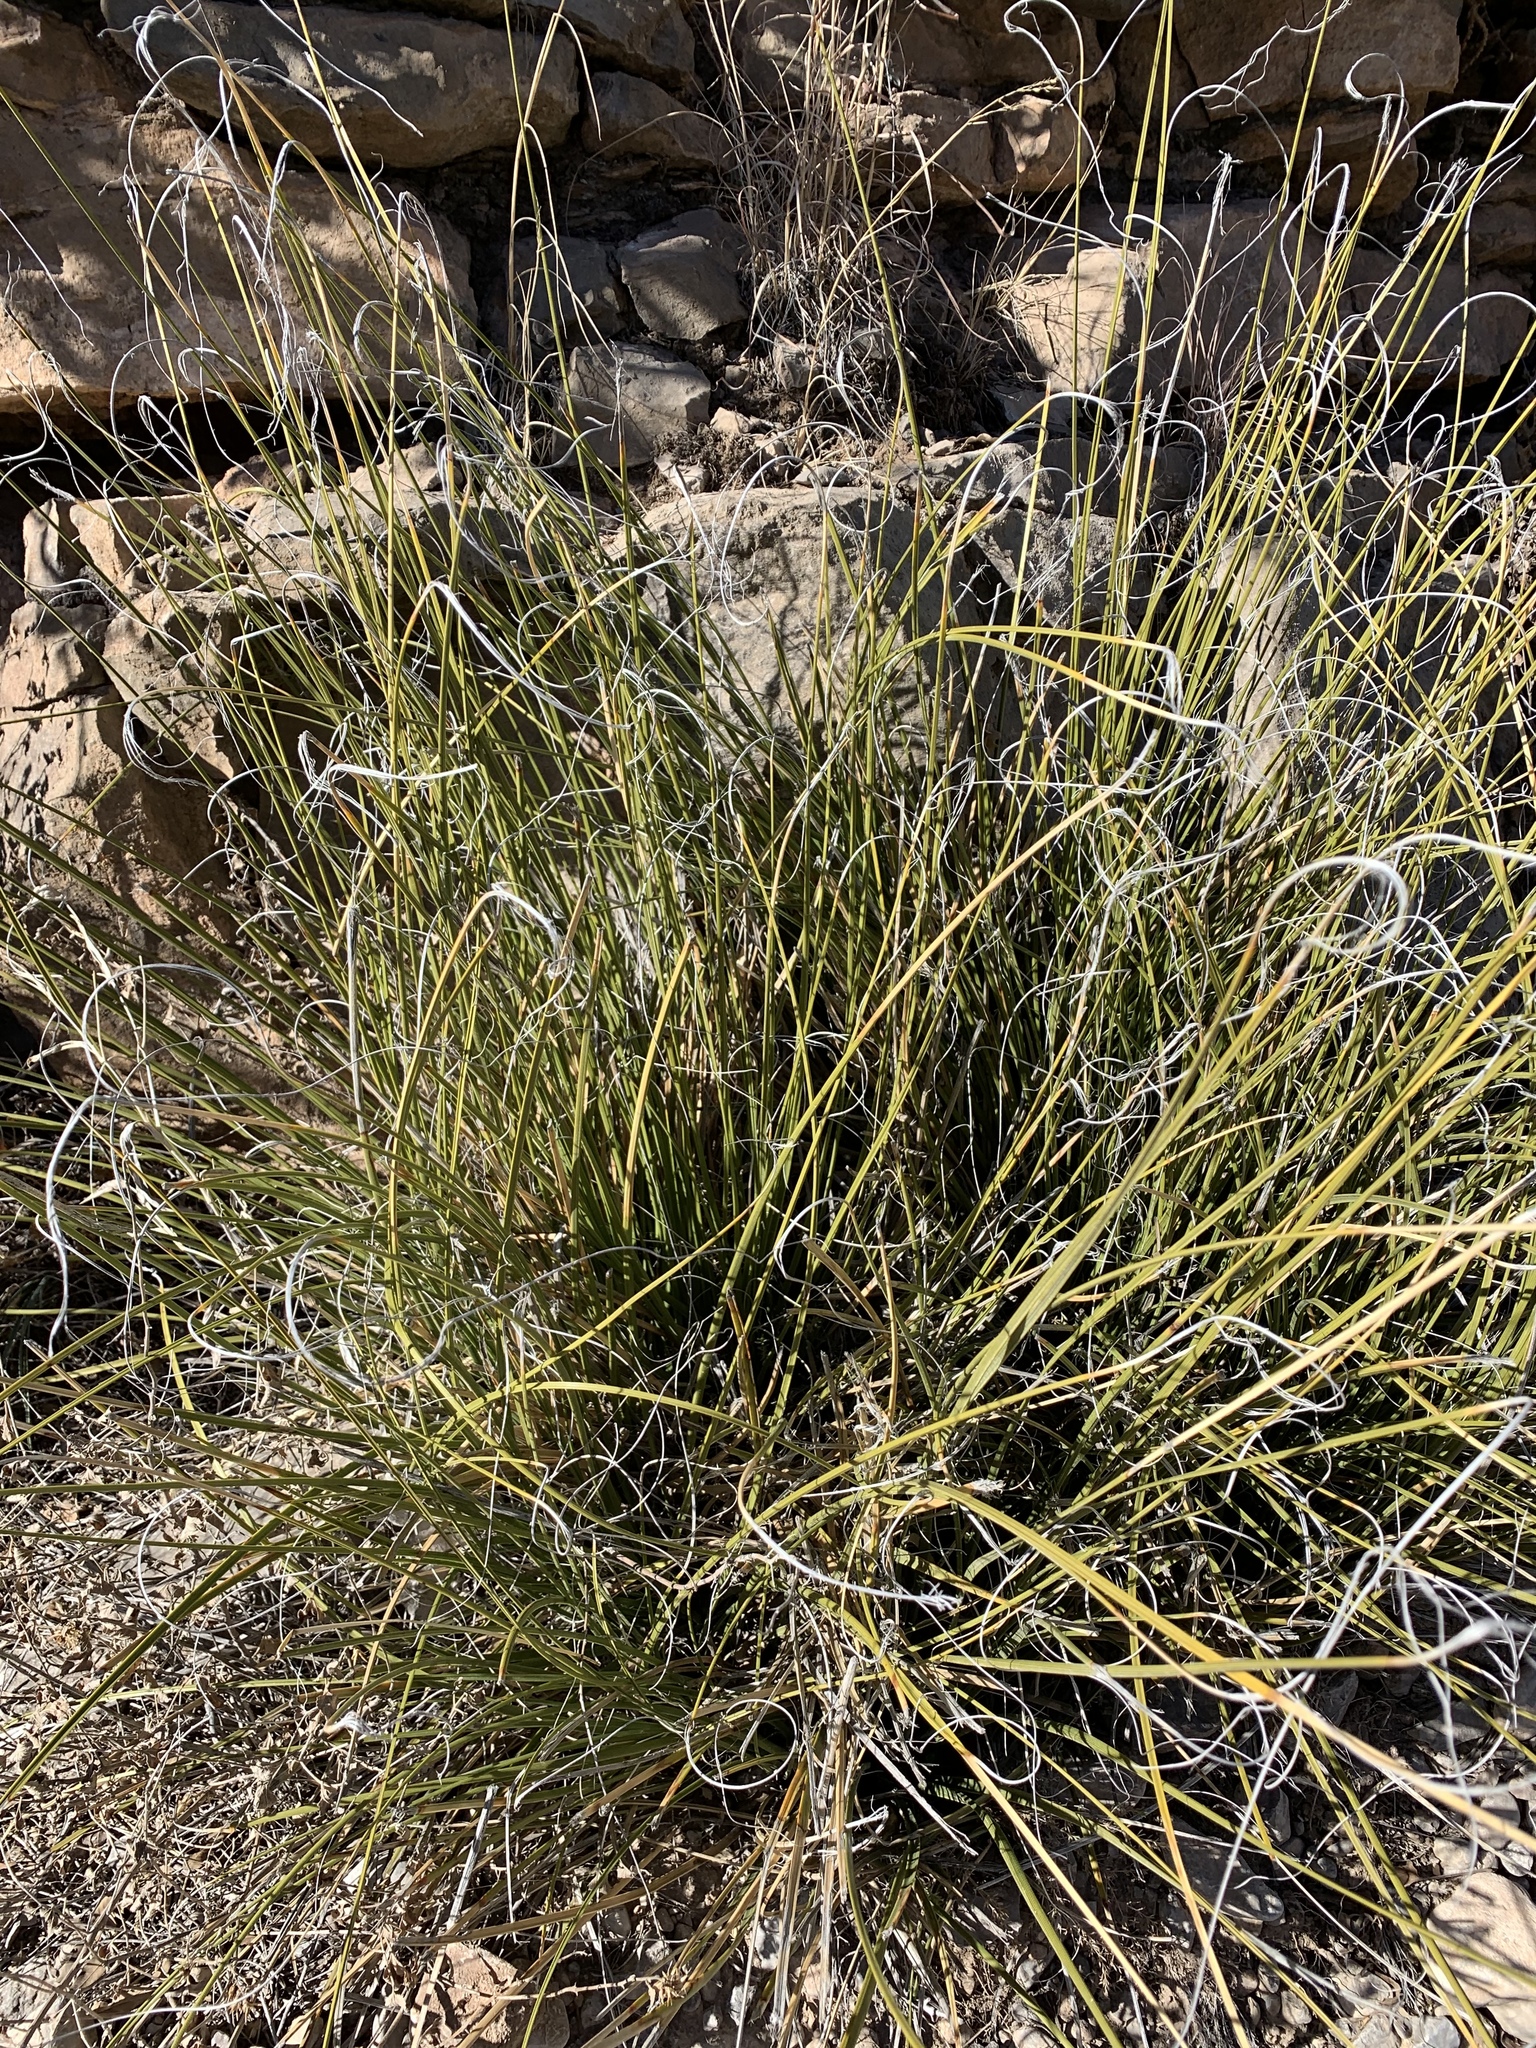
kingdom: Plantae
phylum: Tracheophyta
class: Liliopsida
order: Asparagales
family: Asparagaceae
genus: Nolina
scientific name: Nolina texana
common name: Texas sacahuiste
